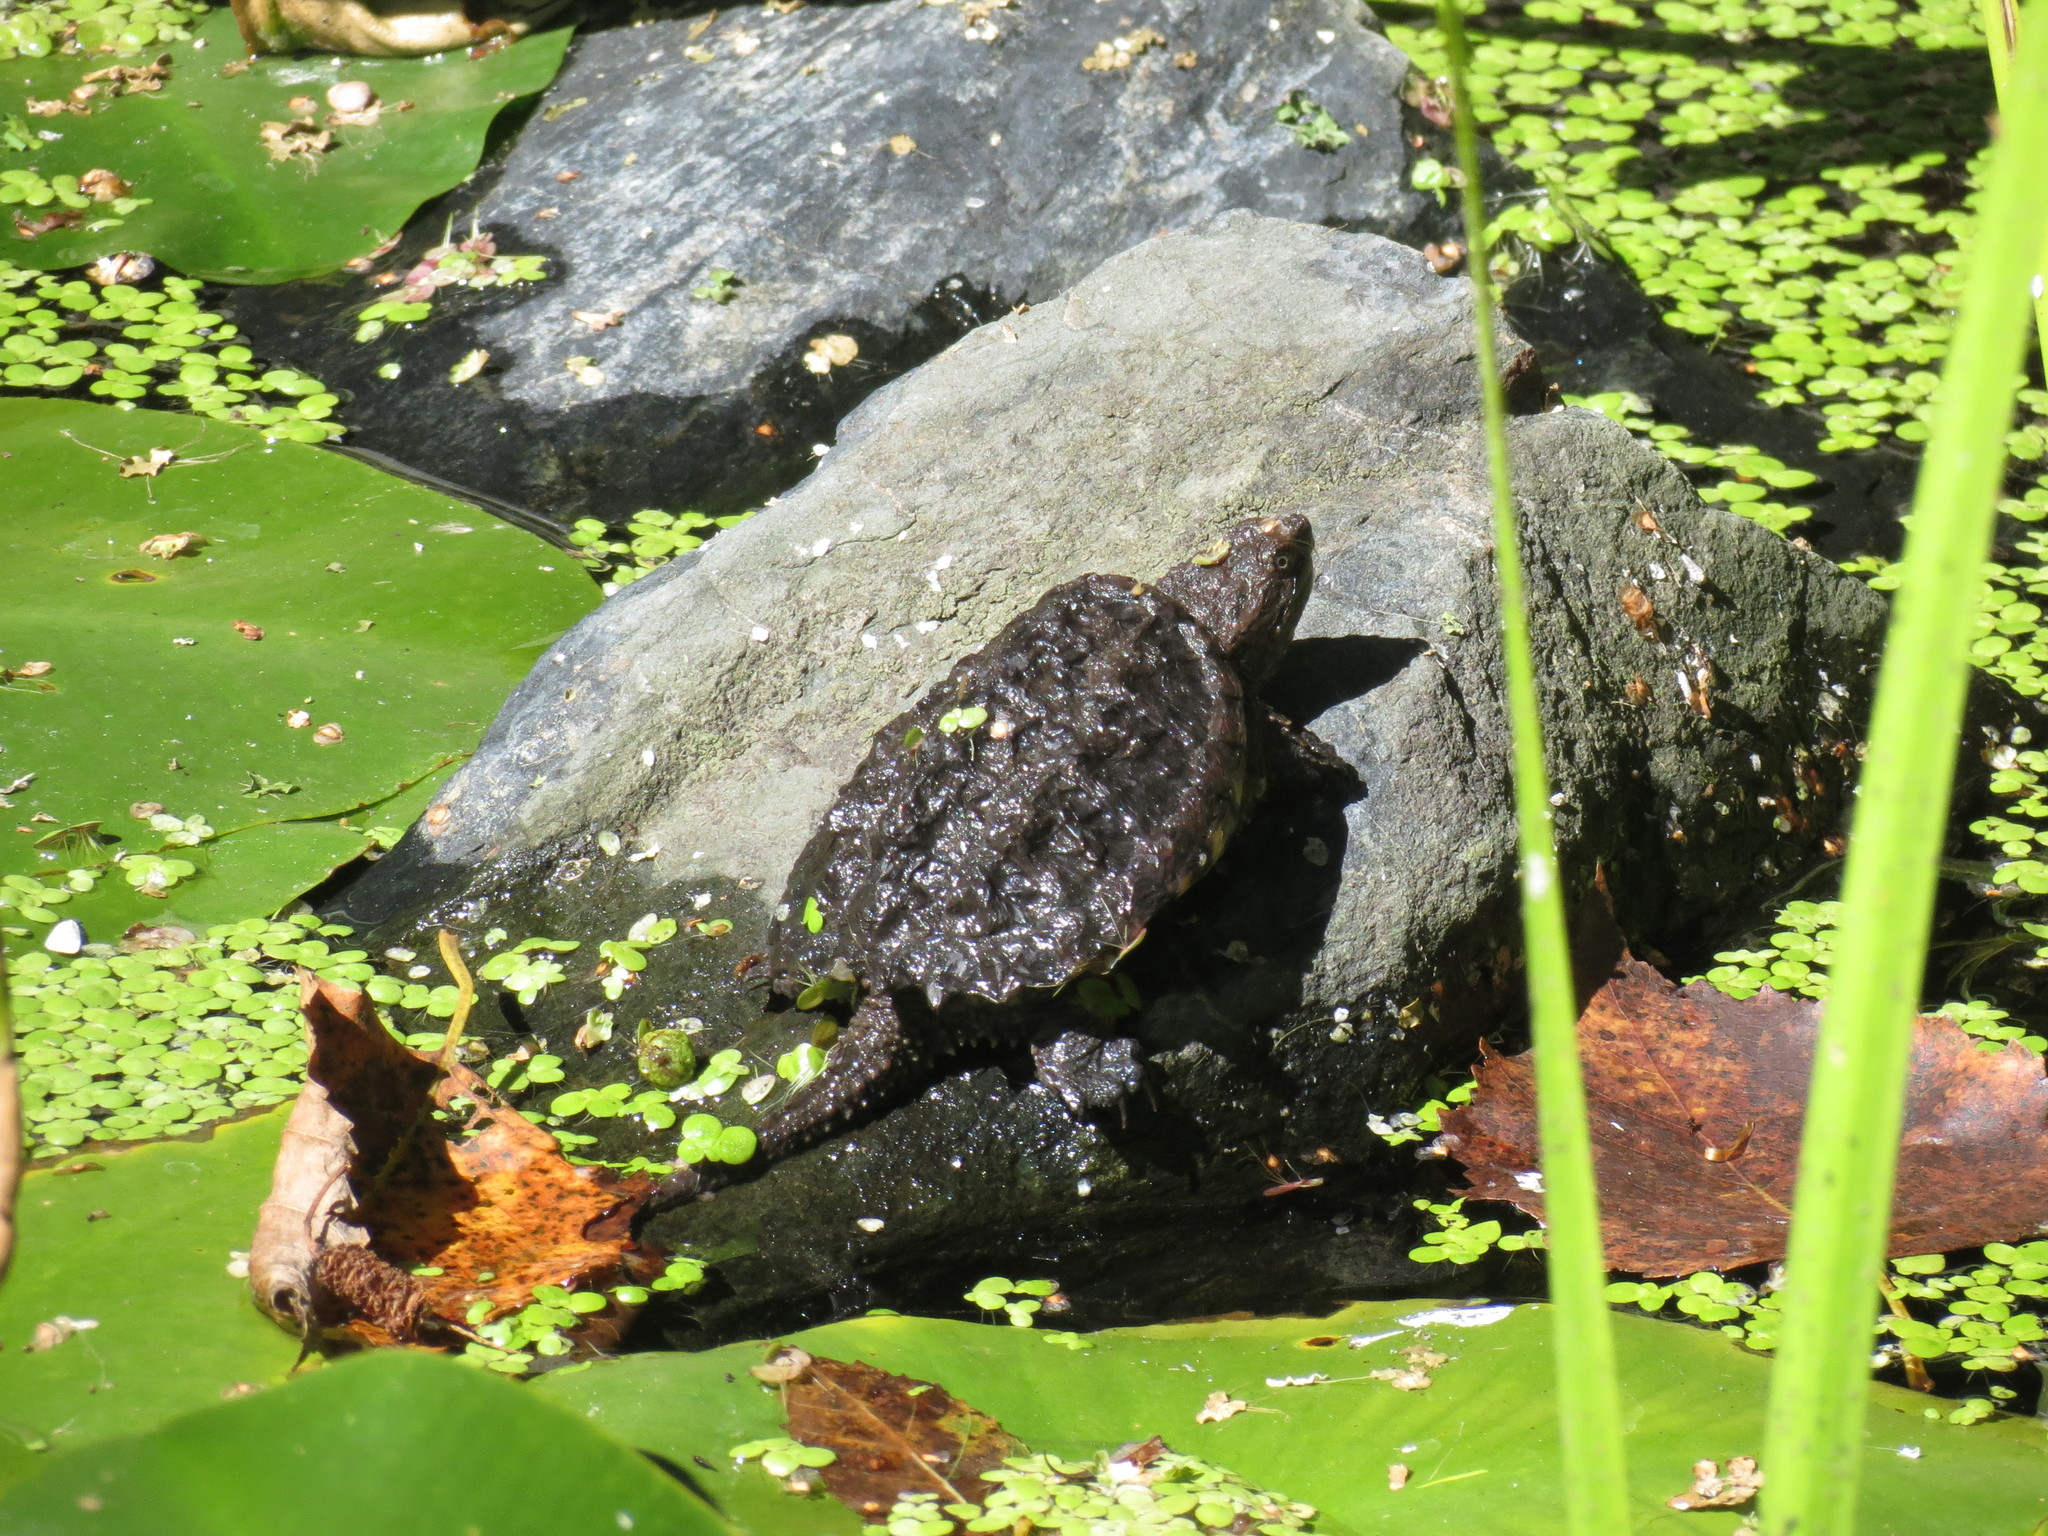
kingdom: Animalia
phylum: Chordata
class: Testudines
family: Chelydridae
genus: Chelydra
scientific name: Chelydra serpentina
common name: Common snapping turtle
